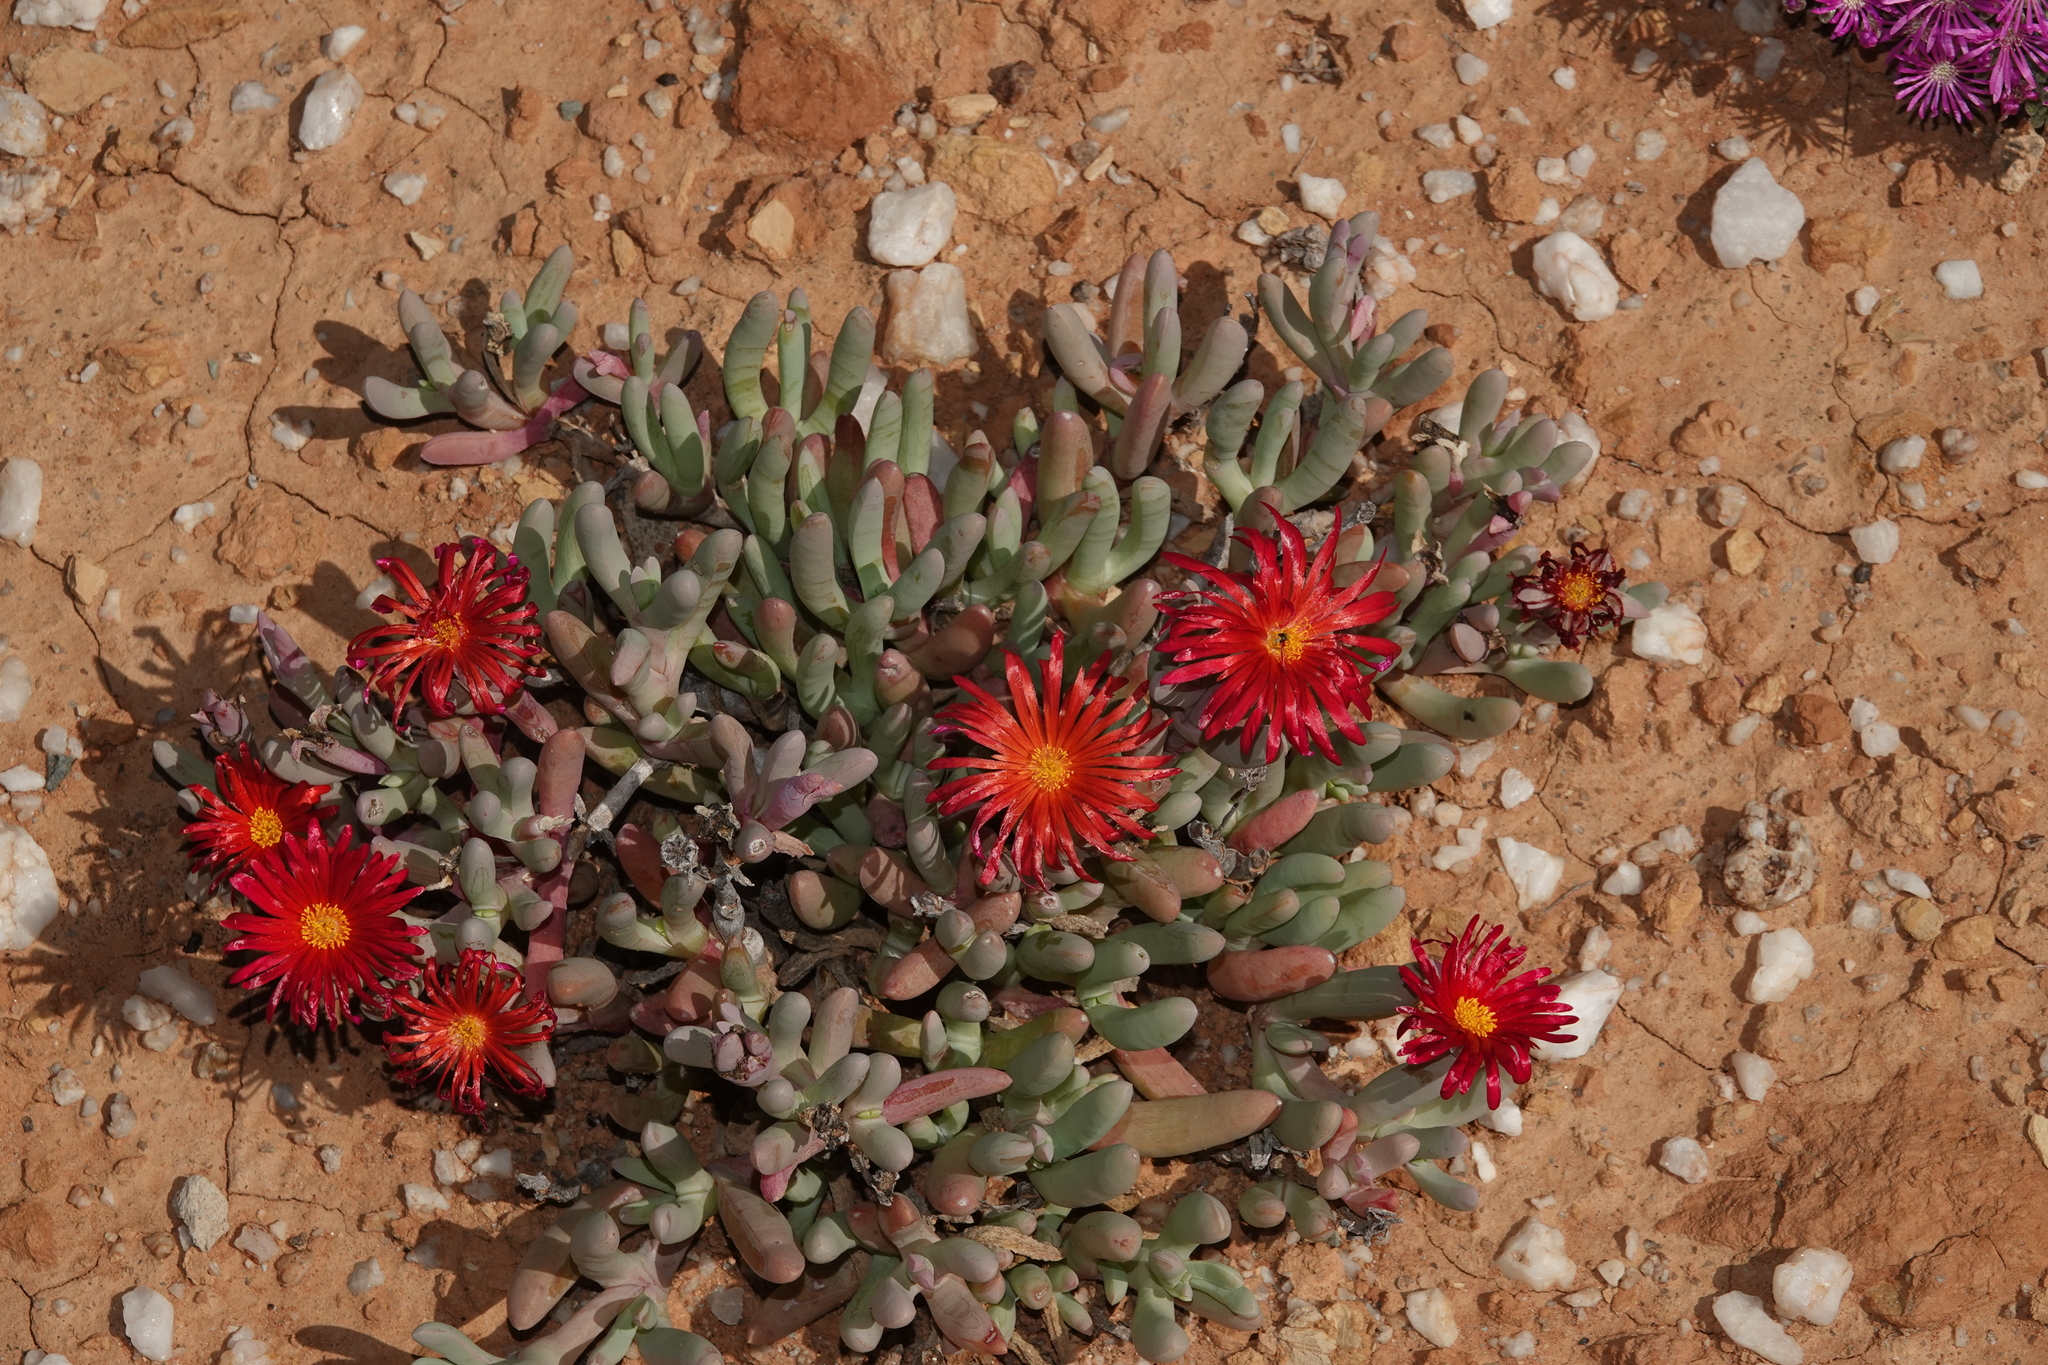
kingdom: Plantae
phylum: Tracheophyta
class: Magnoliopsida
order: Caryophyllales
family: Aizoaceae
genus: Malephora
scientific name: Malephora crocea
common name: Coppery mesemb
